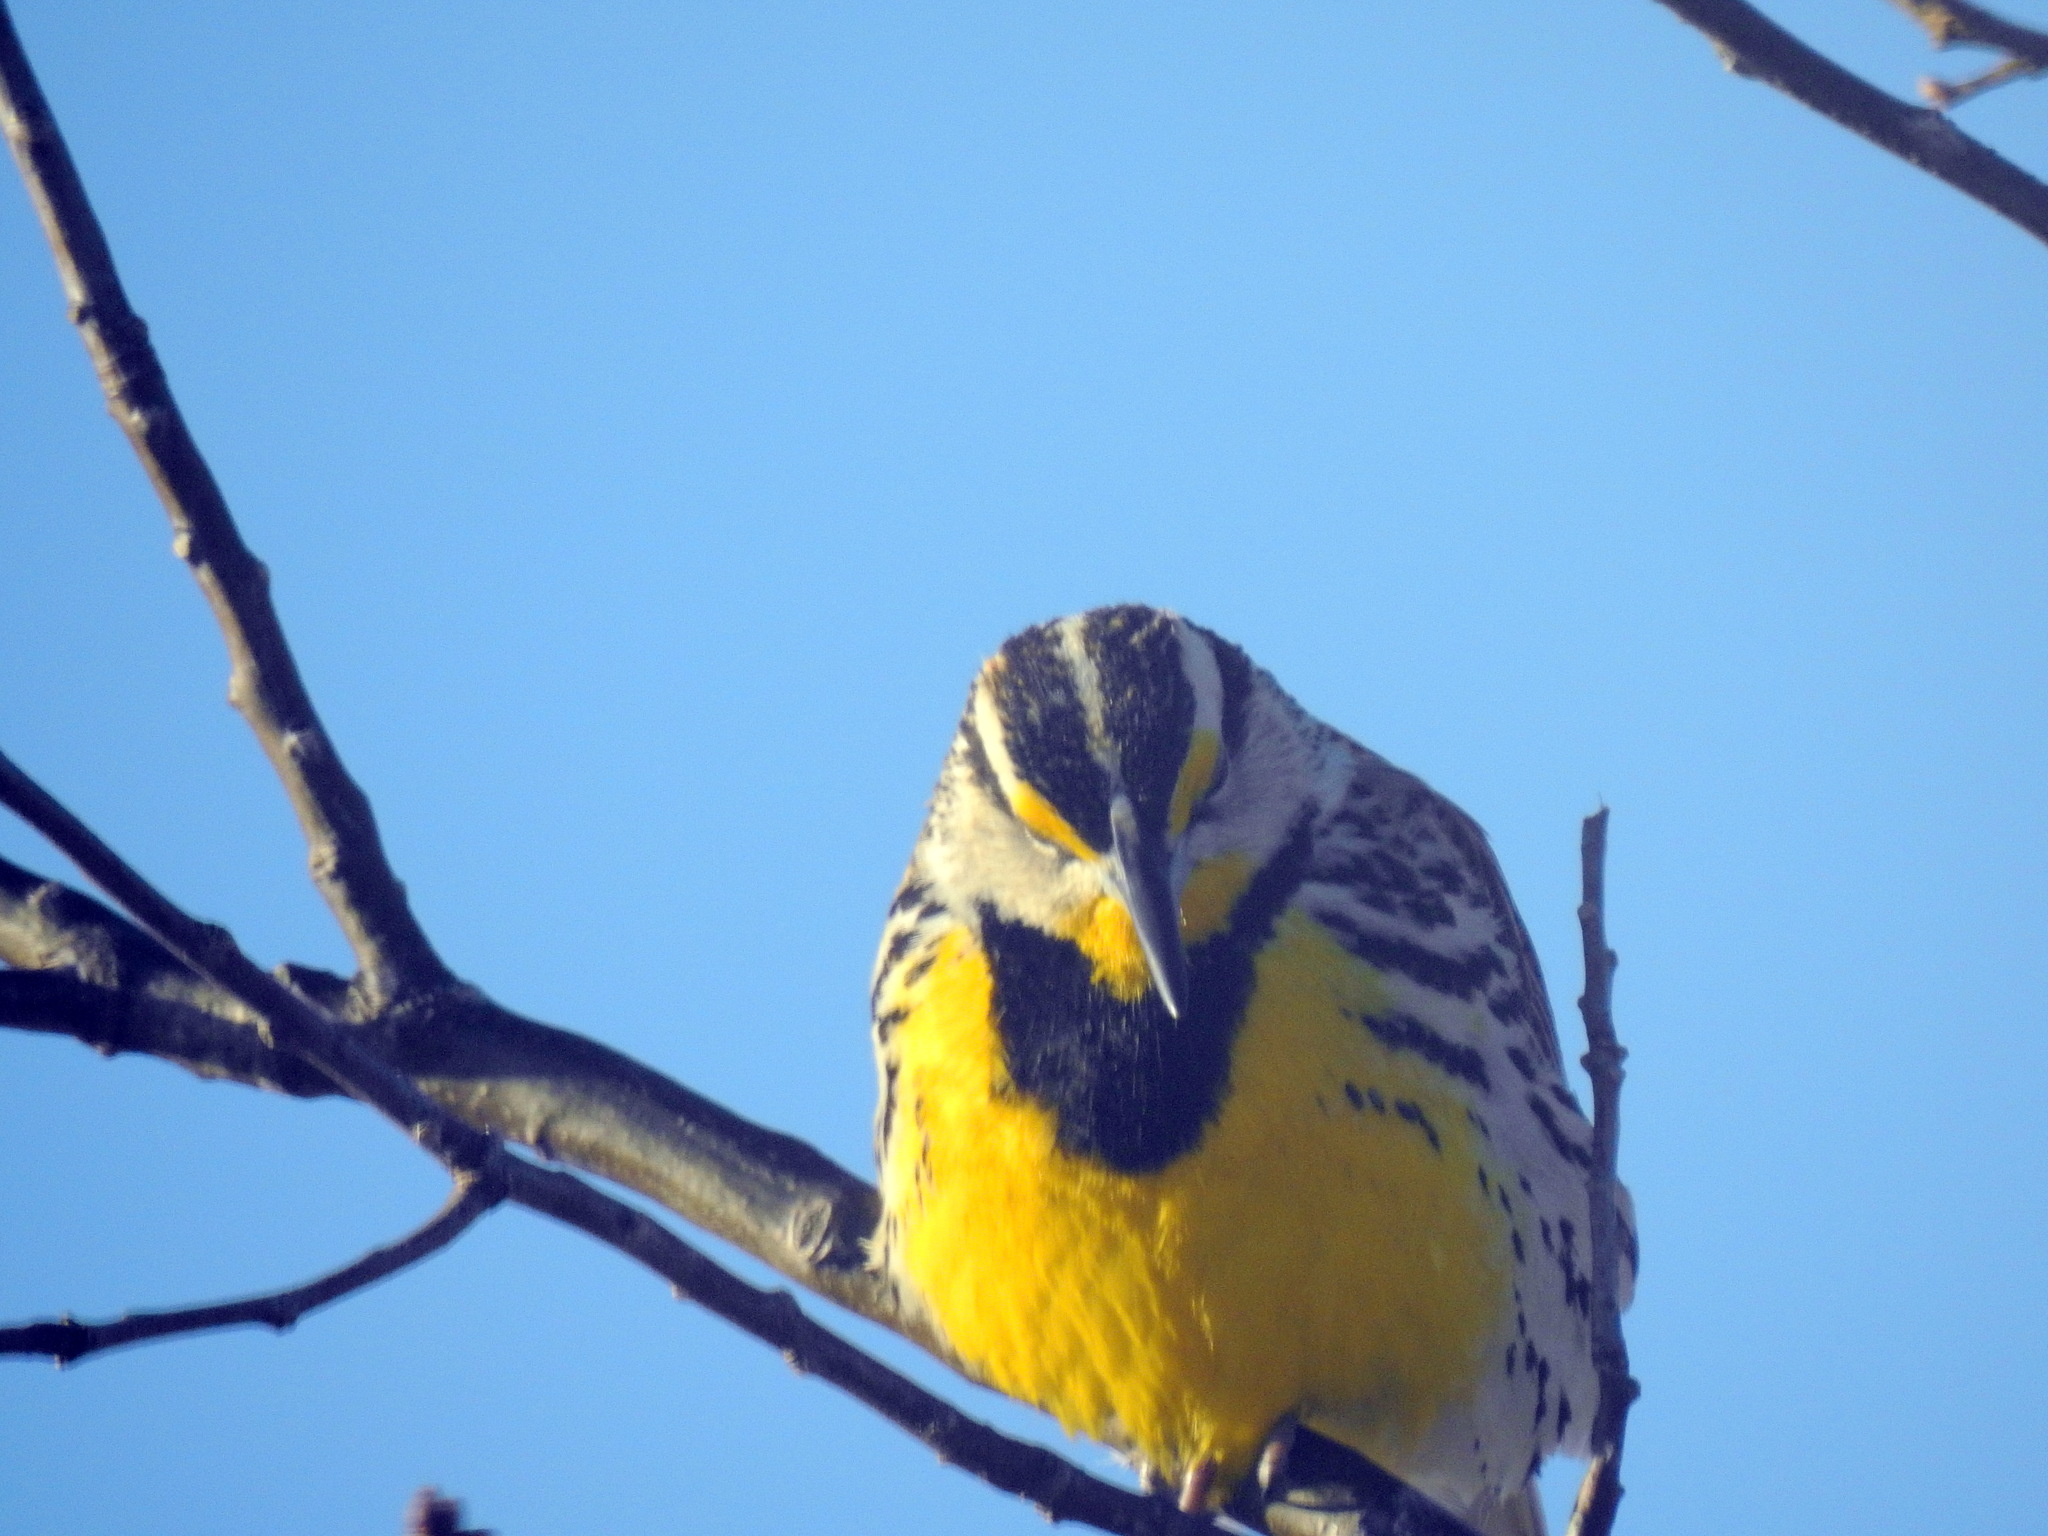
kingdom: Animalia
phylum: Chordata
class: Aves
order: Passeriformes
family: Icteridae
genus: Sturnella
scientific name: Sturnella magna
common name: Eastern meadowlark
